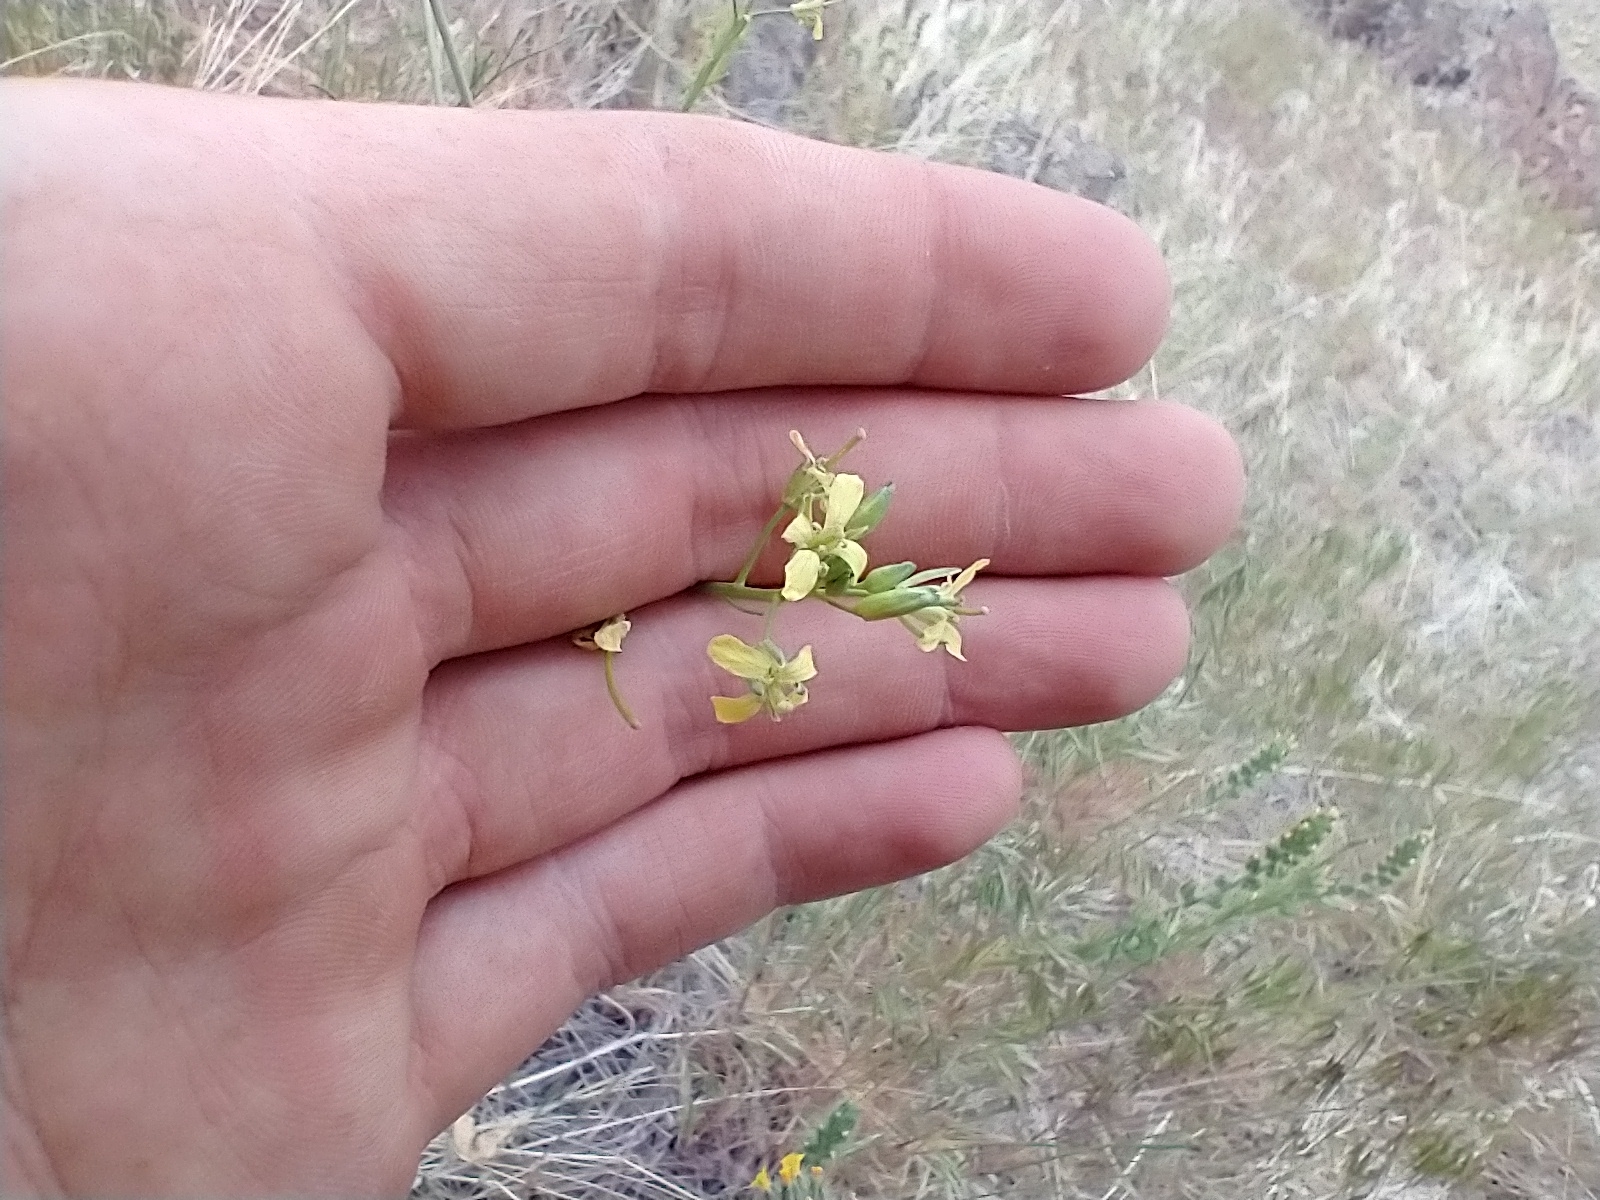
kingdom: Plantae
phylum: Tracheophyta
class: Magnoliopsida
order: Brassicales
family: Brassicaceae
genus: Sisymbrium
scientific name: Sisymbrium altissimum
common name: Tall rocket
